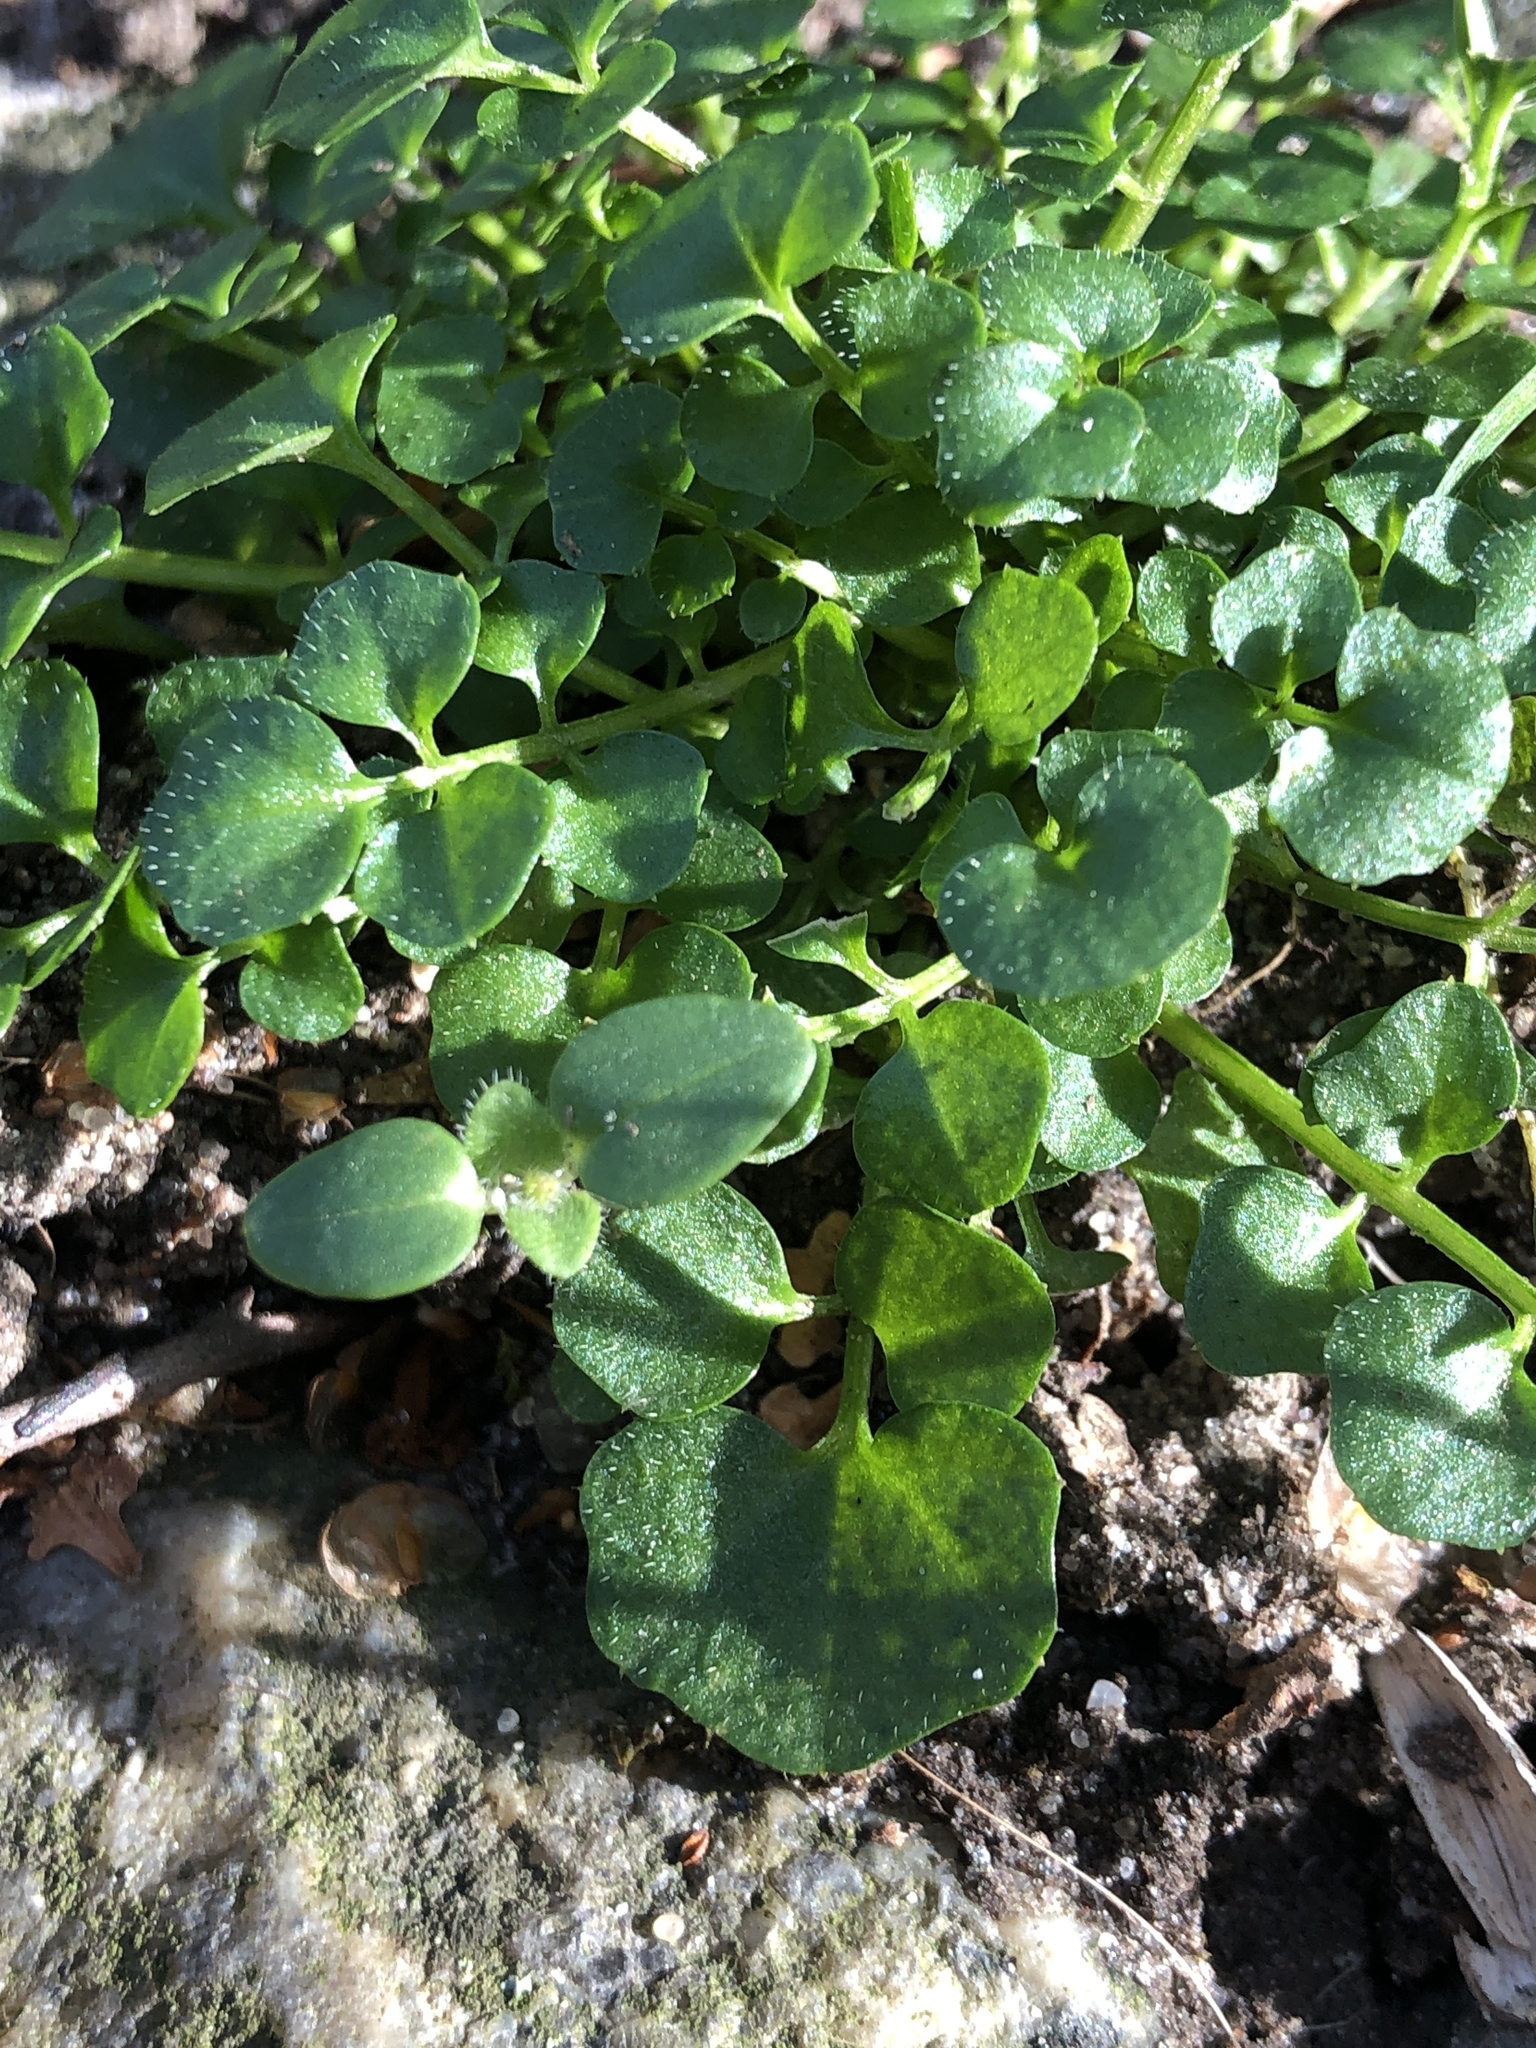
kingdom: Plantae
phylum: Tracheophyta
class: Magnoliopsida
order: Brassicales
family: Brassicaceae
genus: Cardamine
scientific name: Cardamine hirsuta
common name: Hairy bittercress
